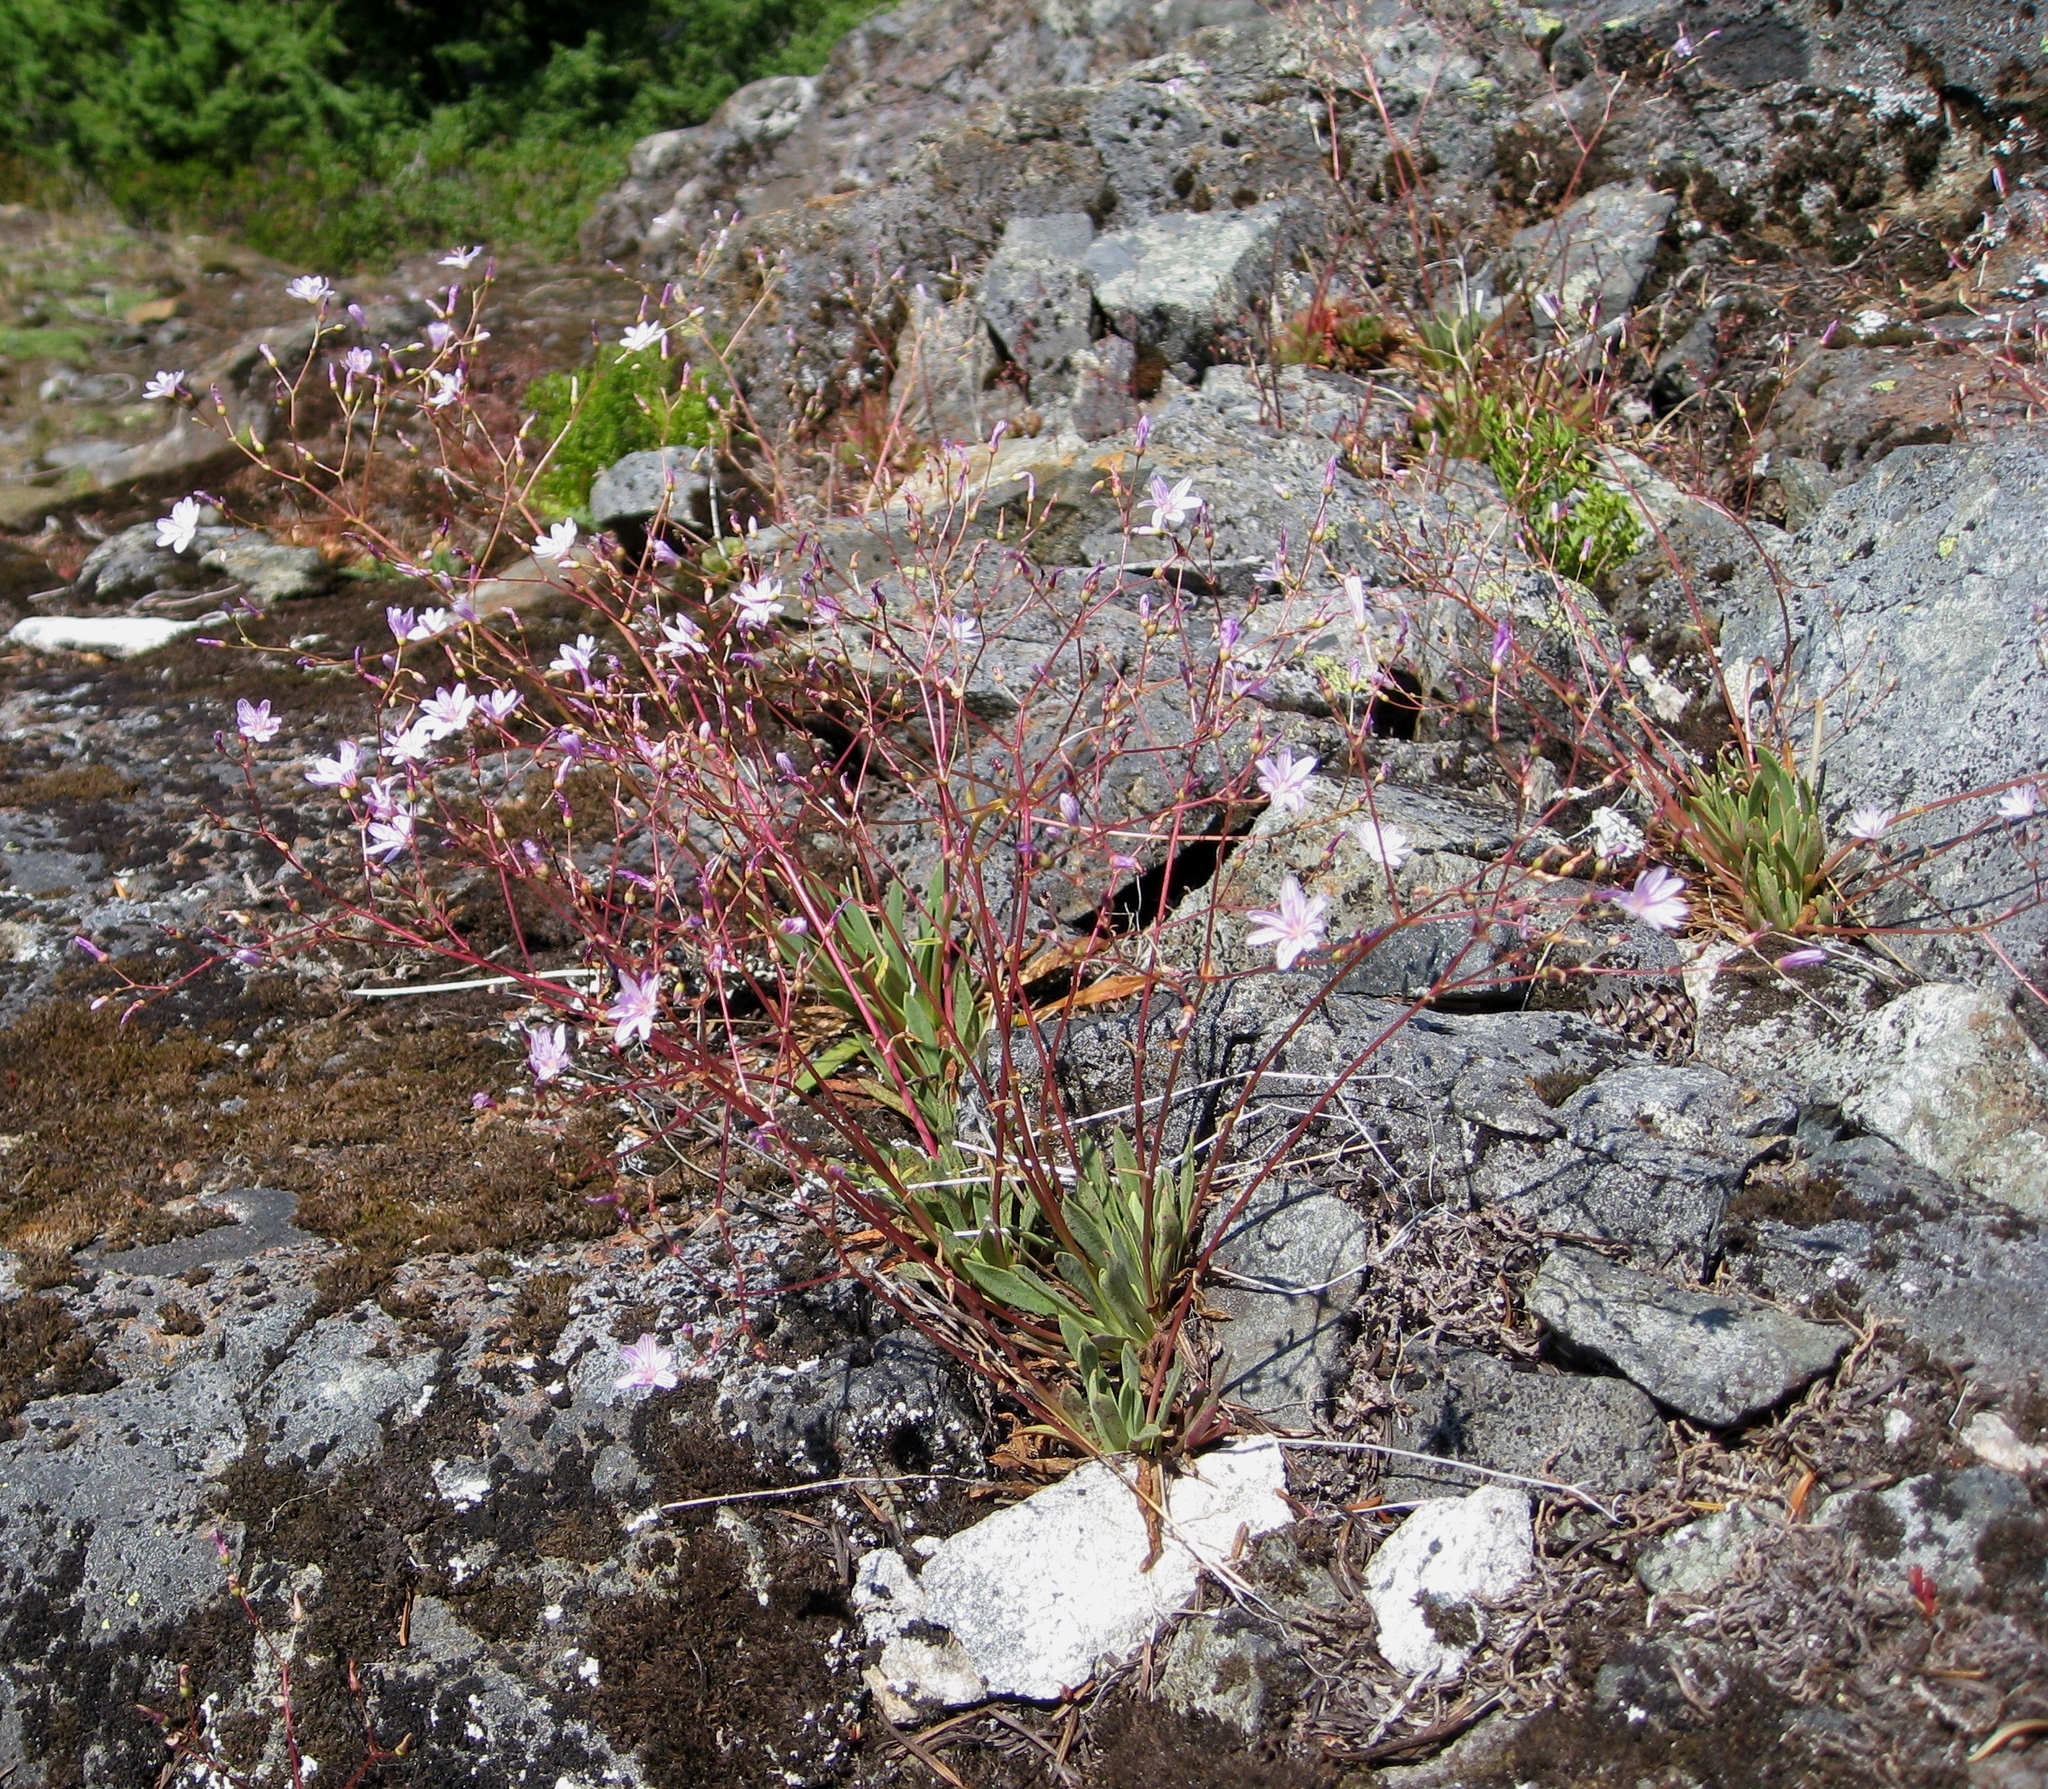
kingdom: Plantae
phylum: Tracheophyta
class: Magnoliopsida
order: Caryophyllales
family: Montiaceae
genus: Lewisia
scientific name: Lewisia columbiana
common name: Columbia lewisia
